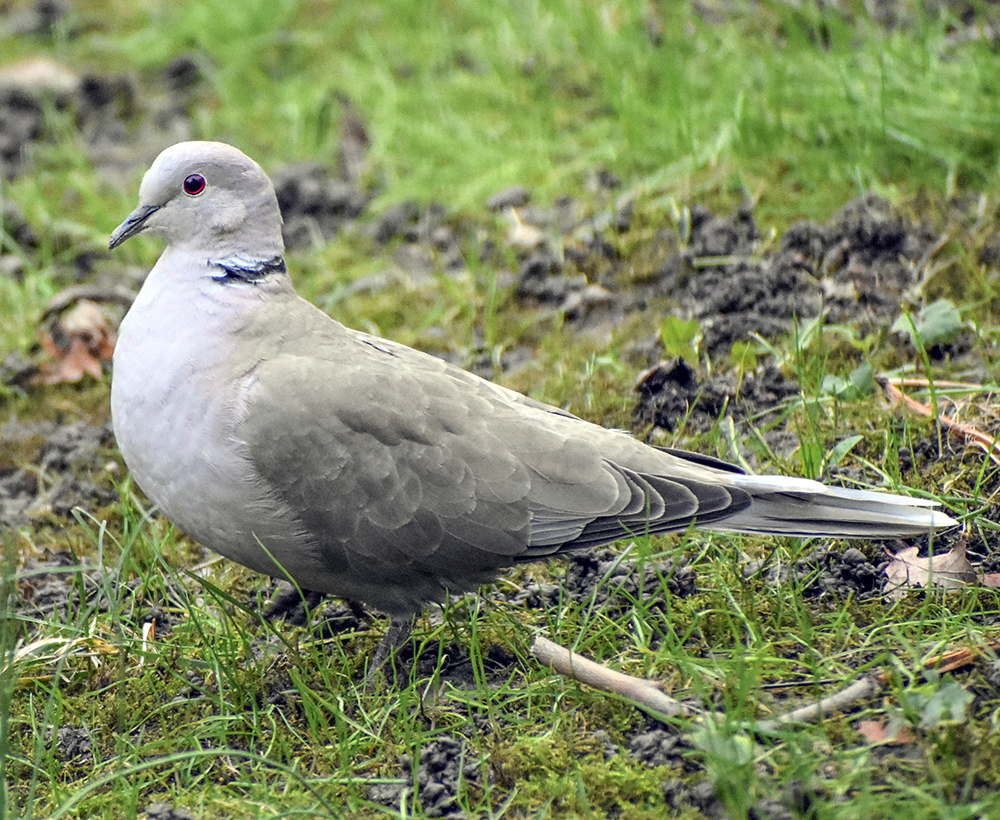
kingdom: Animalia
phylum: Chordata
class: Aves
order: Columbiformes
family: Columbidae
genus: Streptopelia
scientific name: Streptopelia decaocto
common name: Eurasian collared dove
